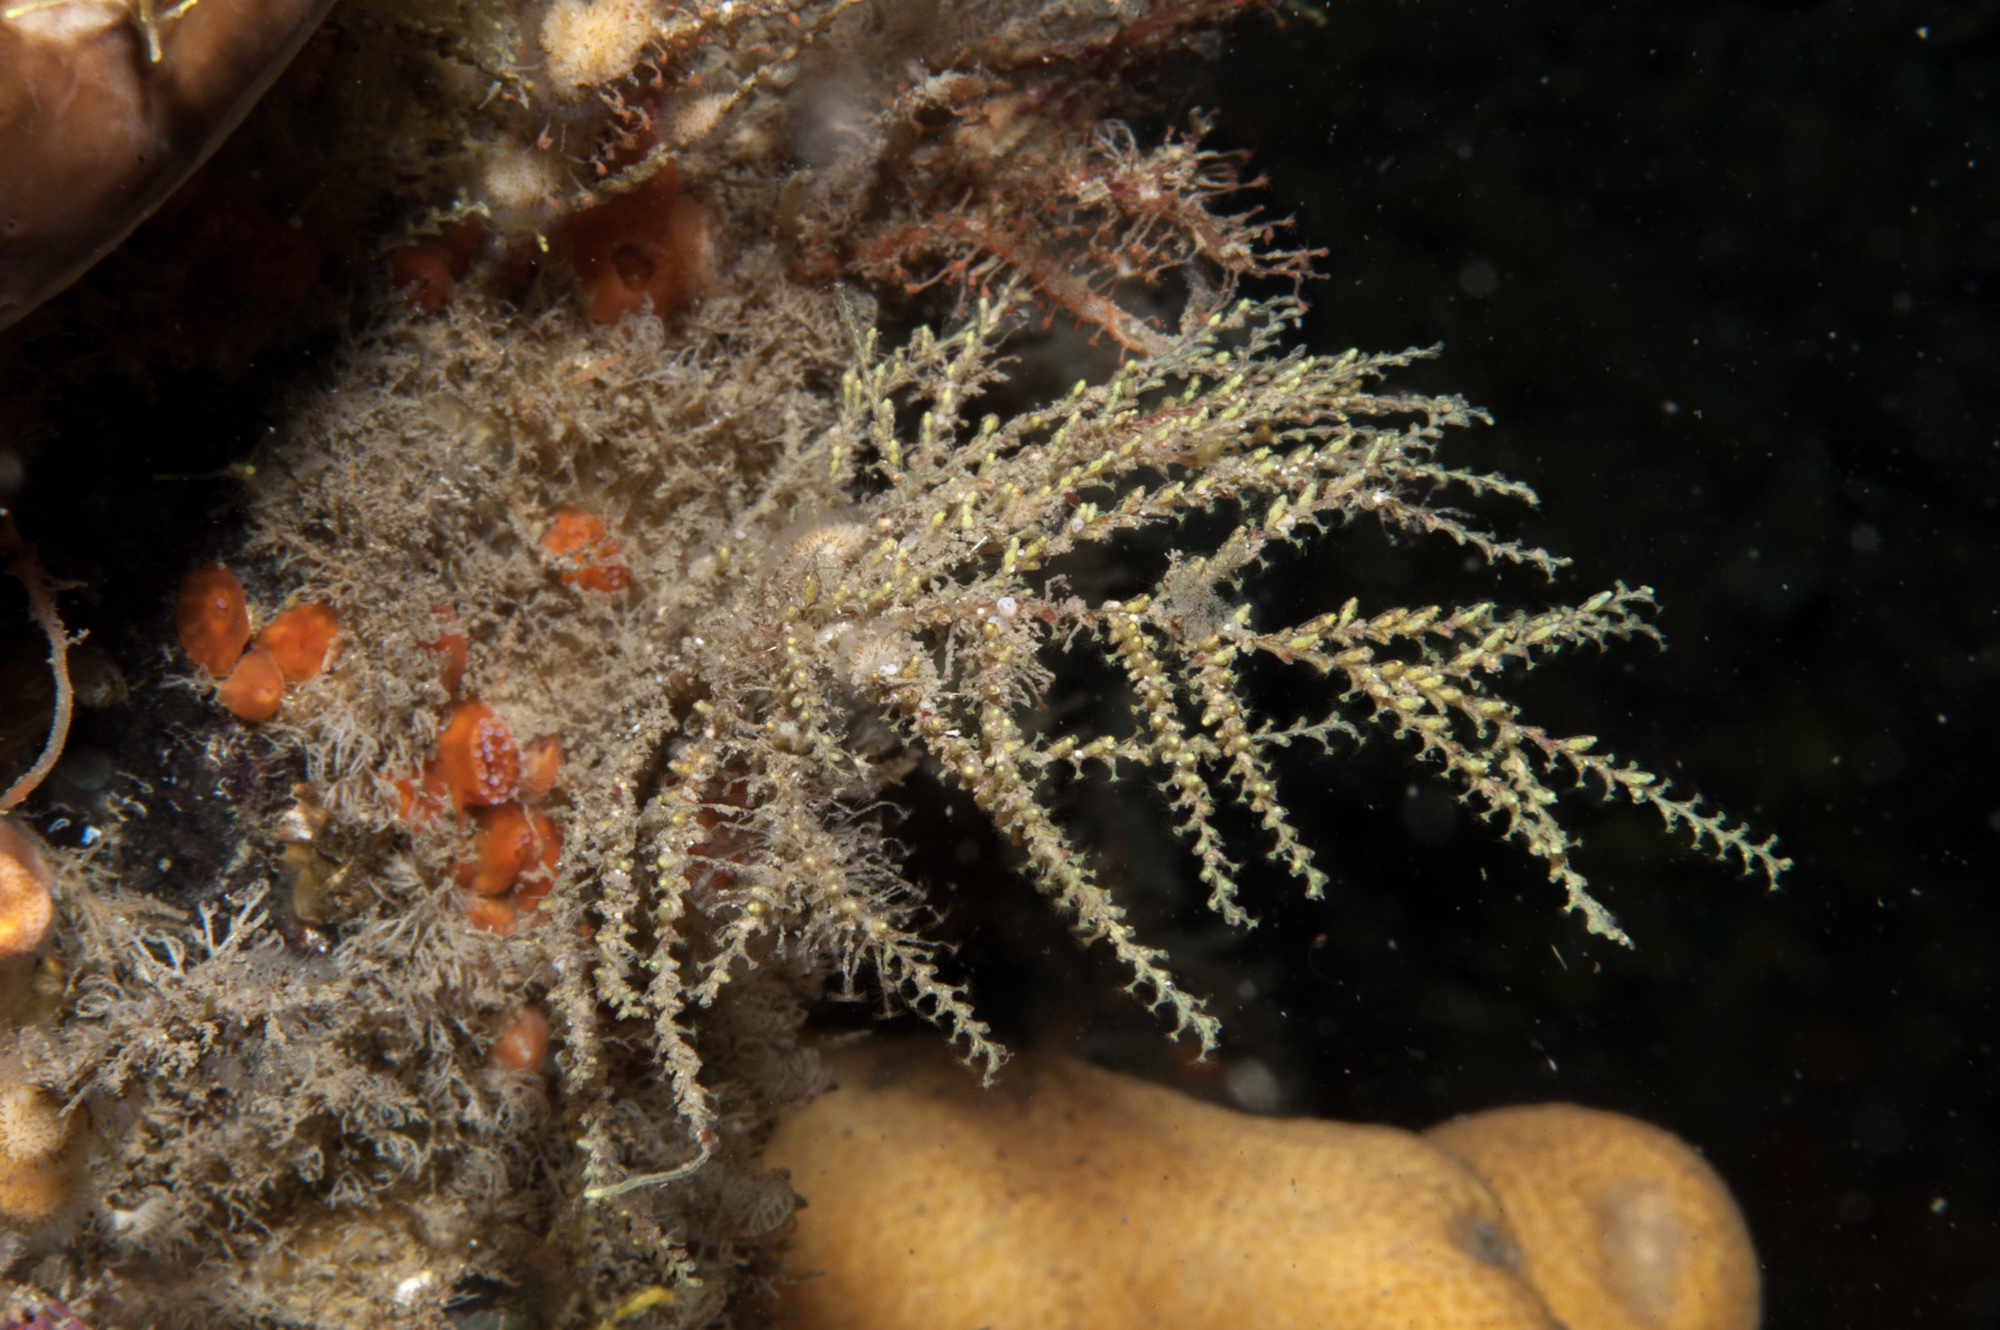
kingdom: Animalia
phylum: Cnidaria
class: Hydrozoa
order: Leptothecata
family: Sertularellidae
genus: Sertularella
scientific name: Sertularella gayi
